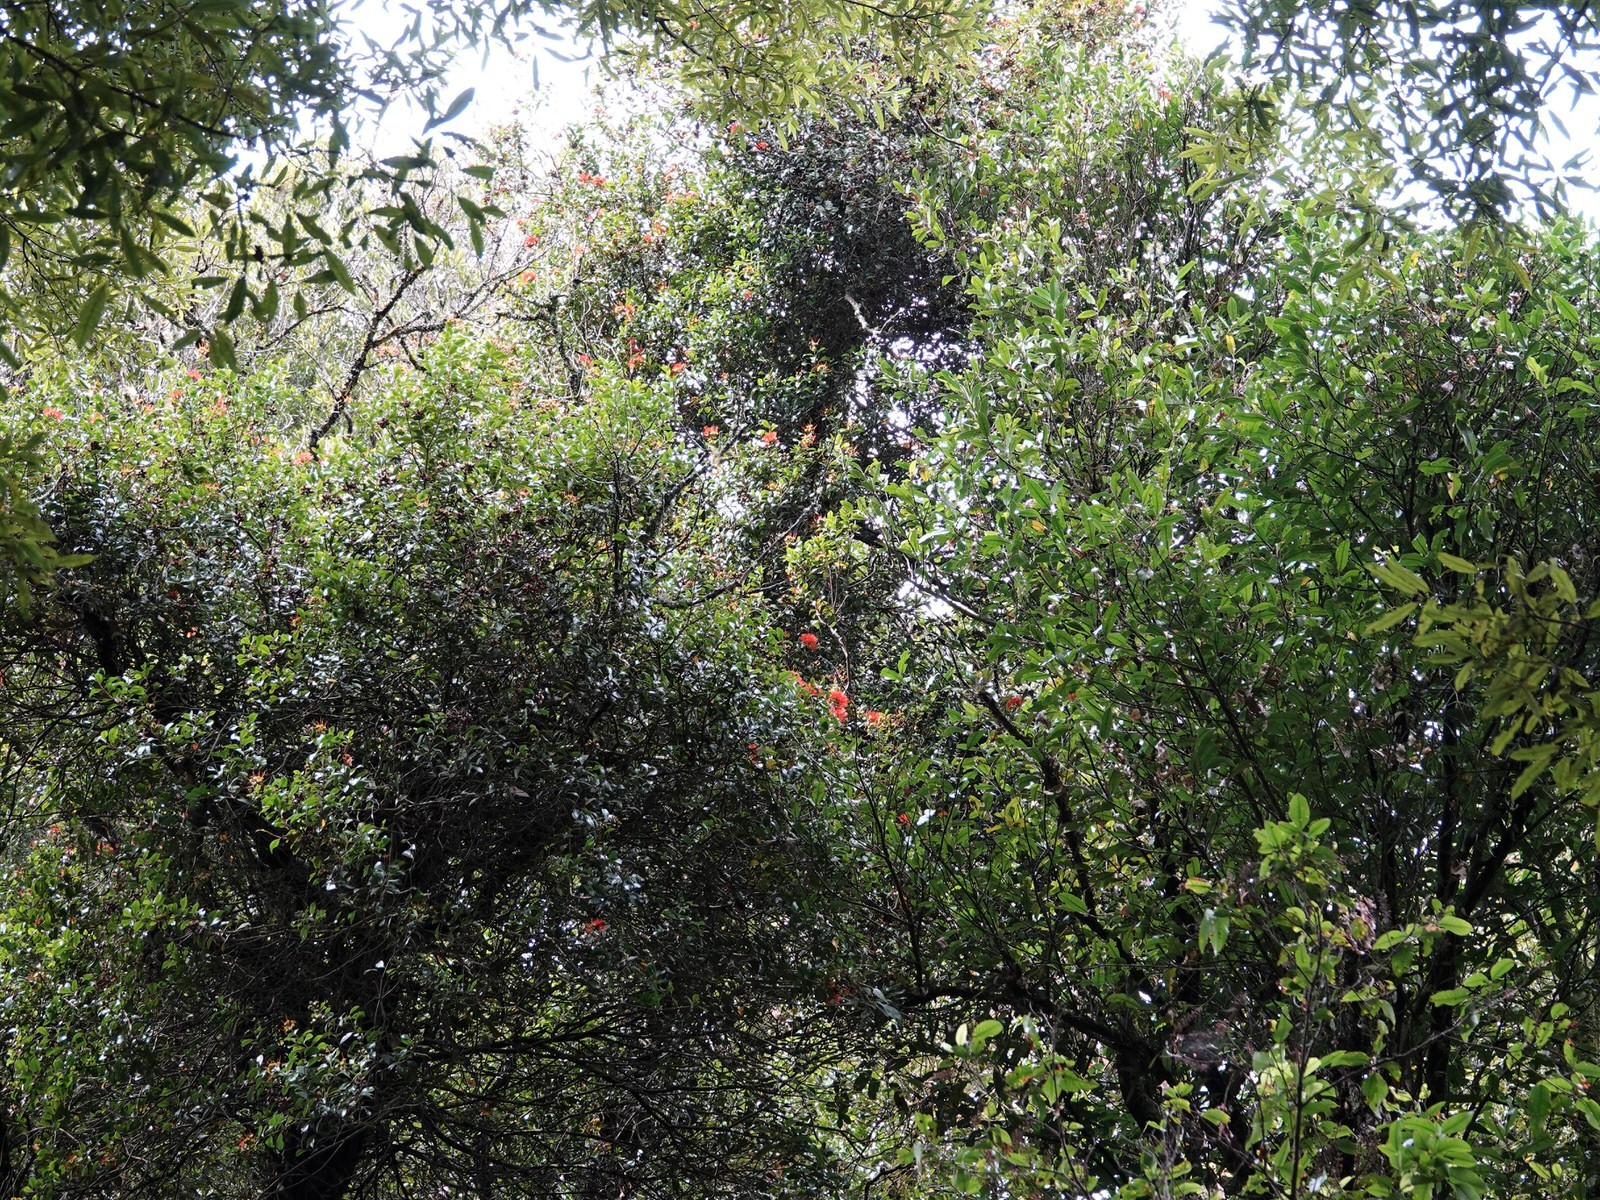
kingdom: Plantae
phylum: Tracheophyta
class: Magnoliopsida
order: Myrtales
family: Myrtaceae
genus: Metrosideros
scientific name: Metrosideros fulgens
